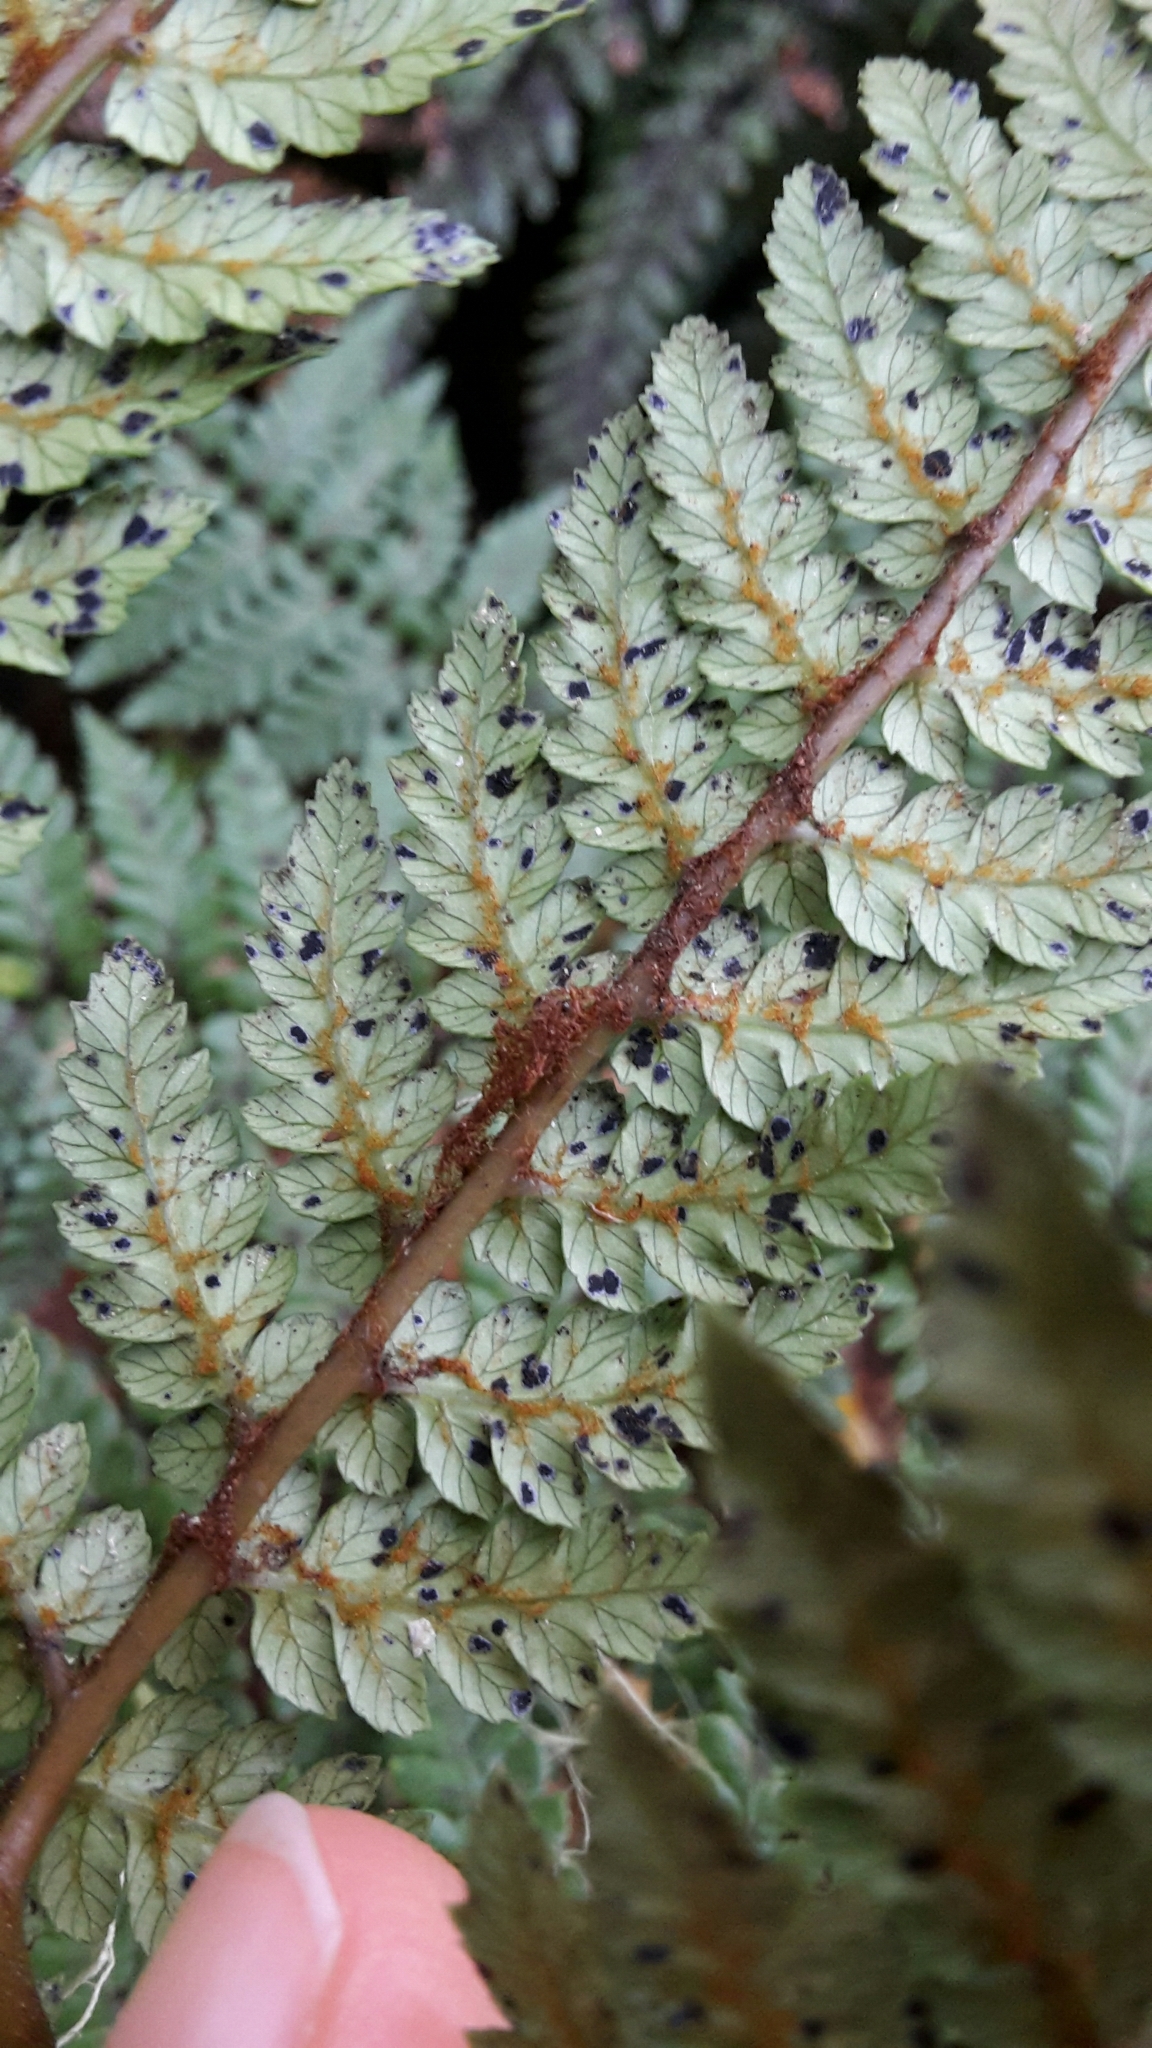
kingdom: Plantae
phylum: Tracheophyta
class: Polypodiopsida
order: Cyatheales
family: Dicksoniaceae
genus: Dicksonia
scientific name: Dicksonia lanata
